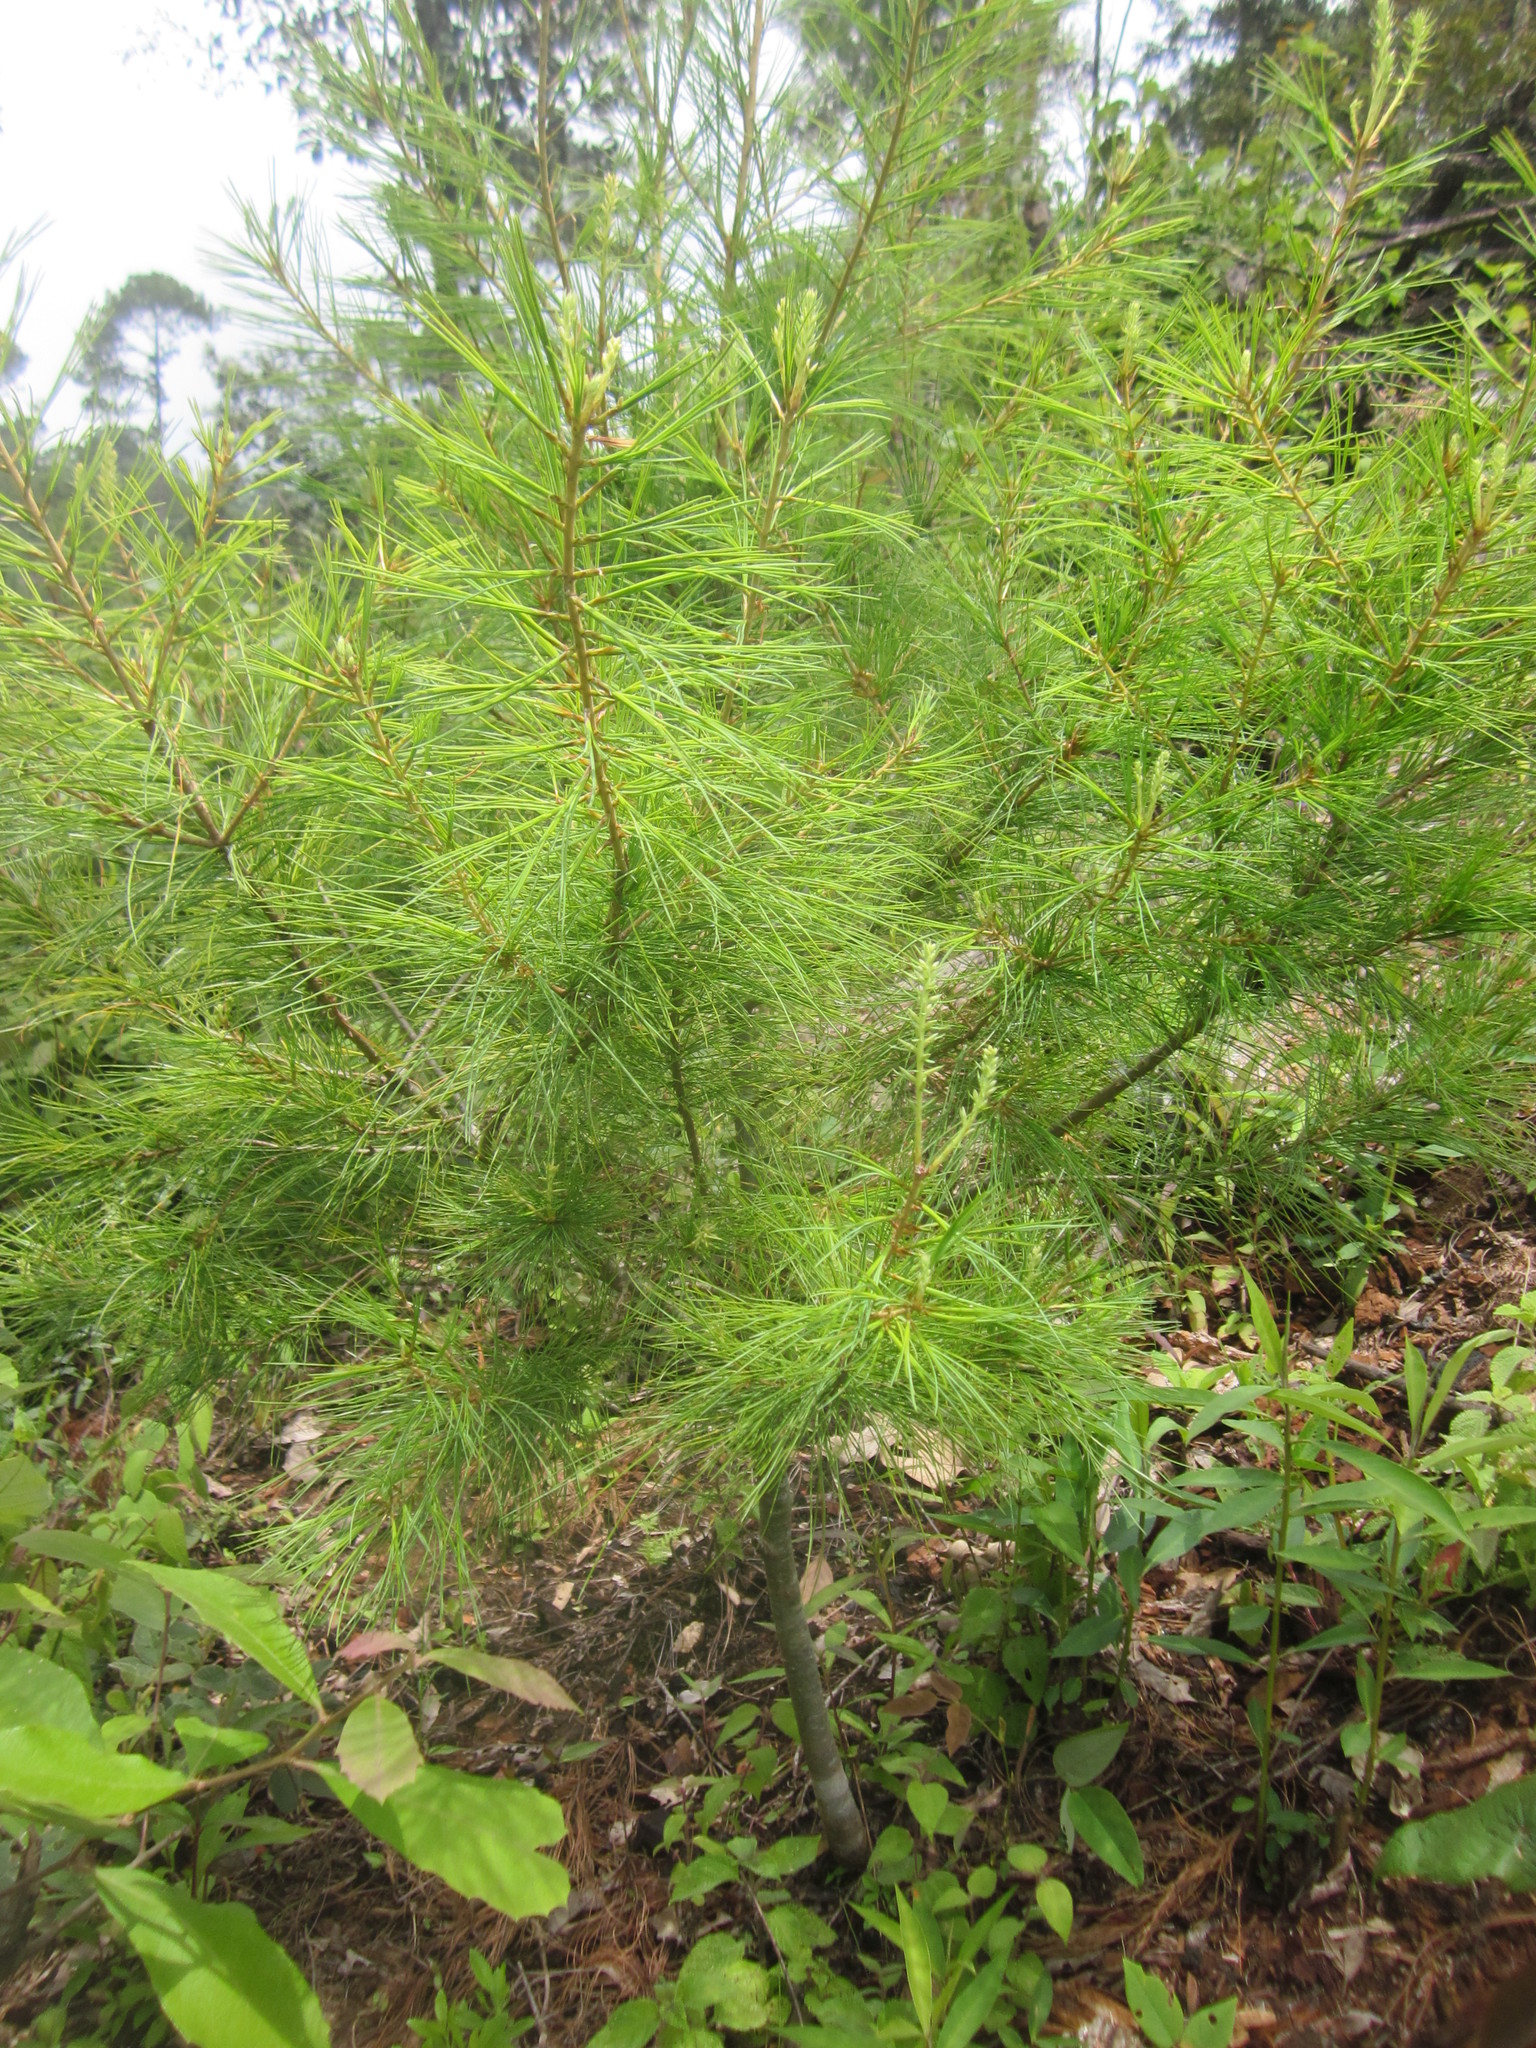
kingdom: Plantae
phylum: Tracheophyta
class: Pinopsida
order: Pinales
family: Pinaceae
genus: Pinus
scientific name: Pinus strobus
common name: Weymouth pine
